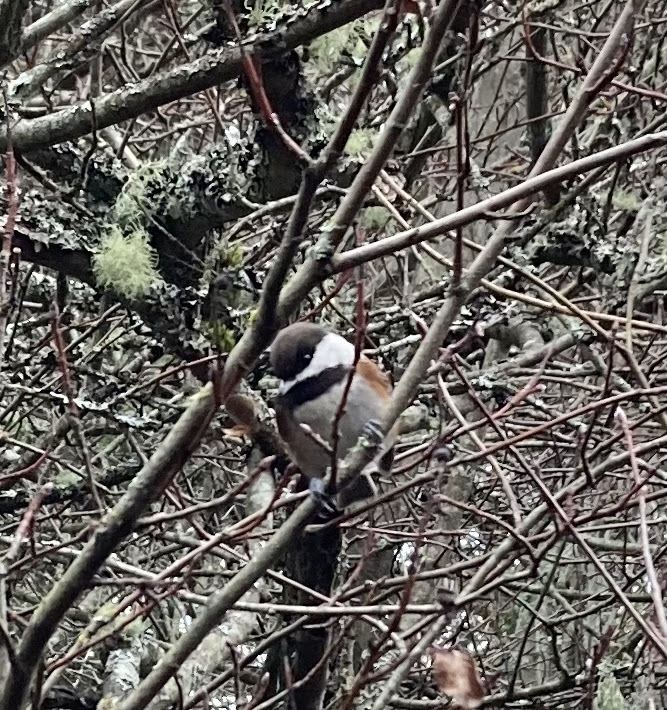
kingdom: Animalia
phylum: Chordata
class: Aves
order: Passeriformes
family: Paridae
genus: Poecile
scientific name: Poecile rufescens
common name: Chestnut-backed chickadee
